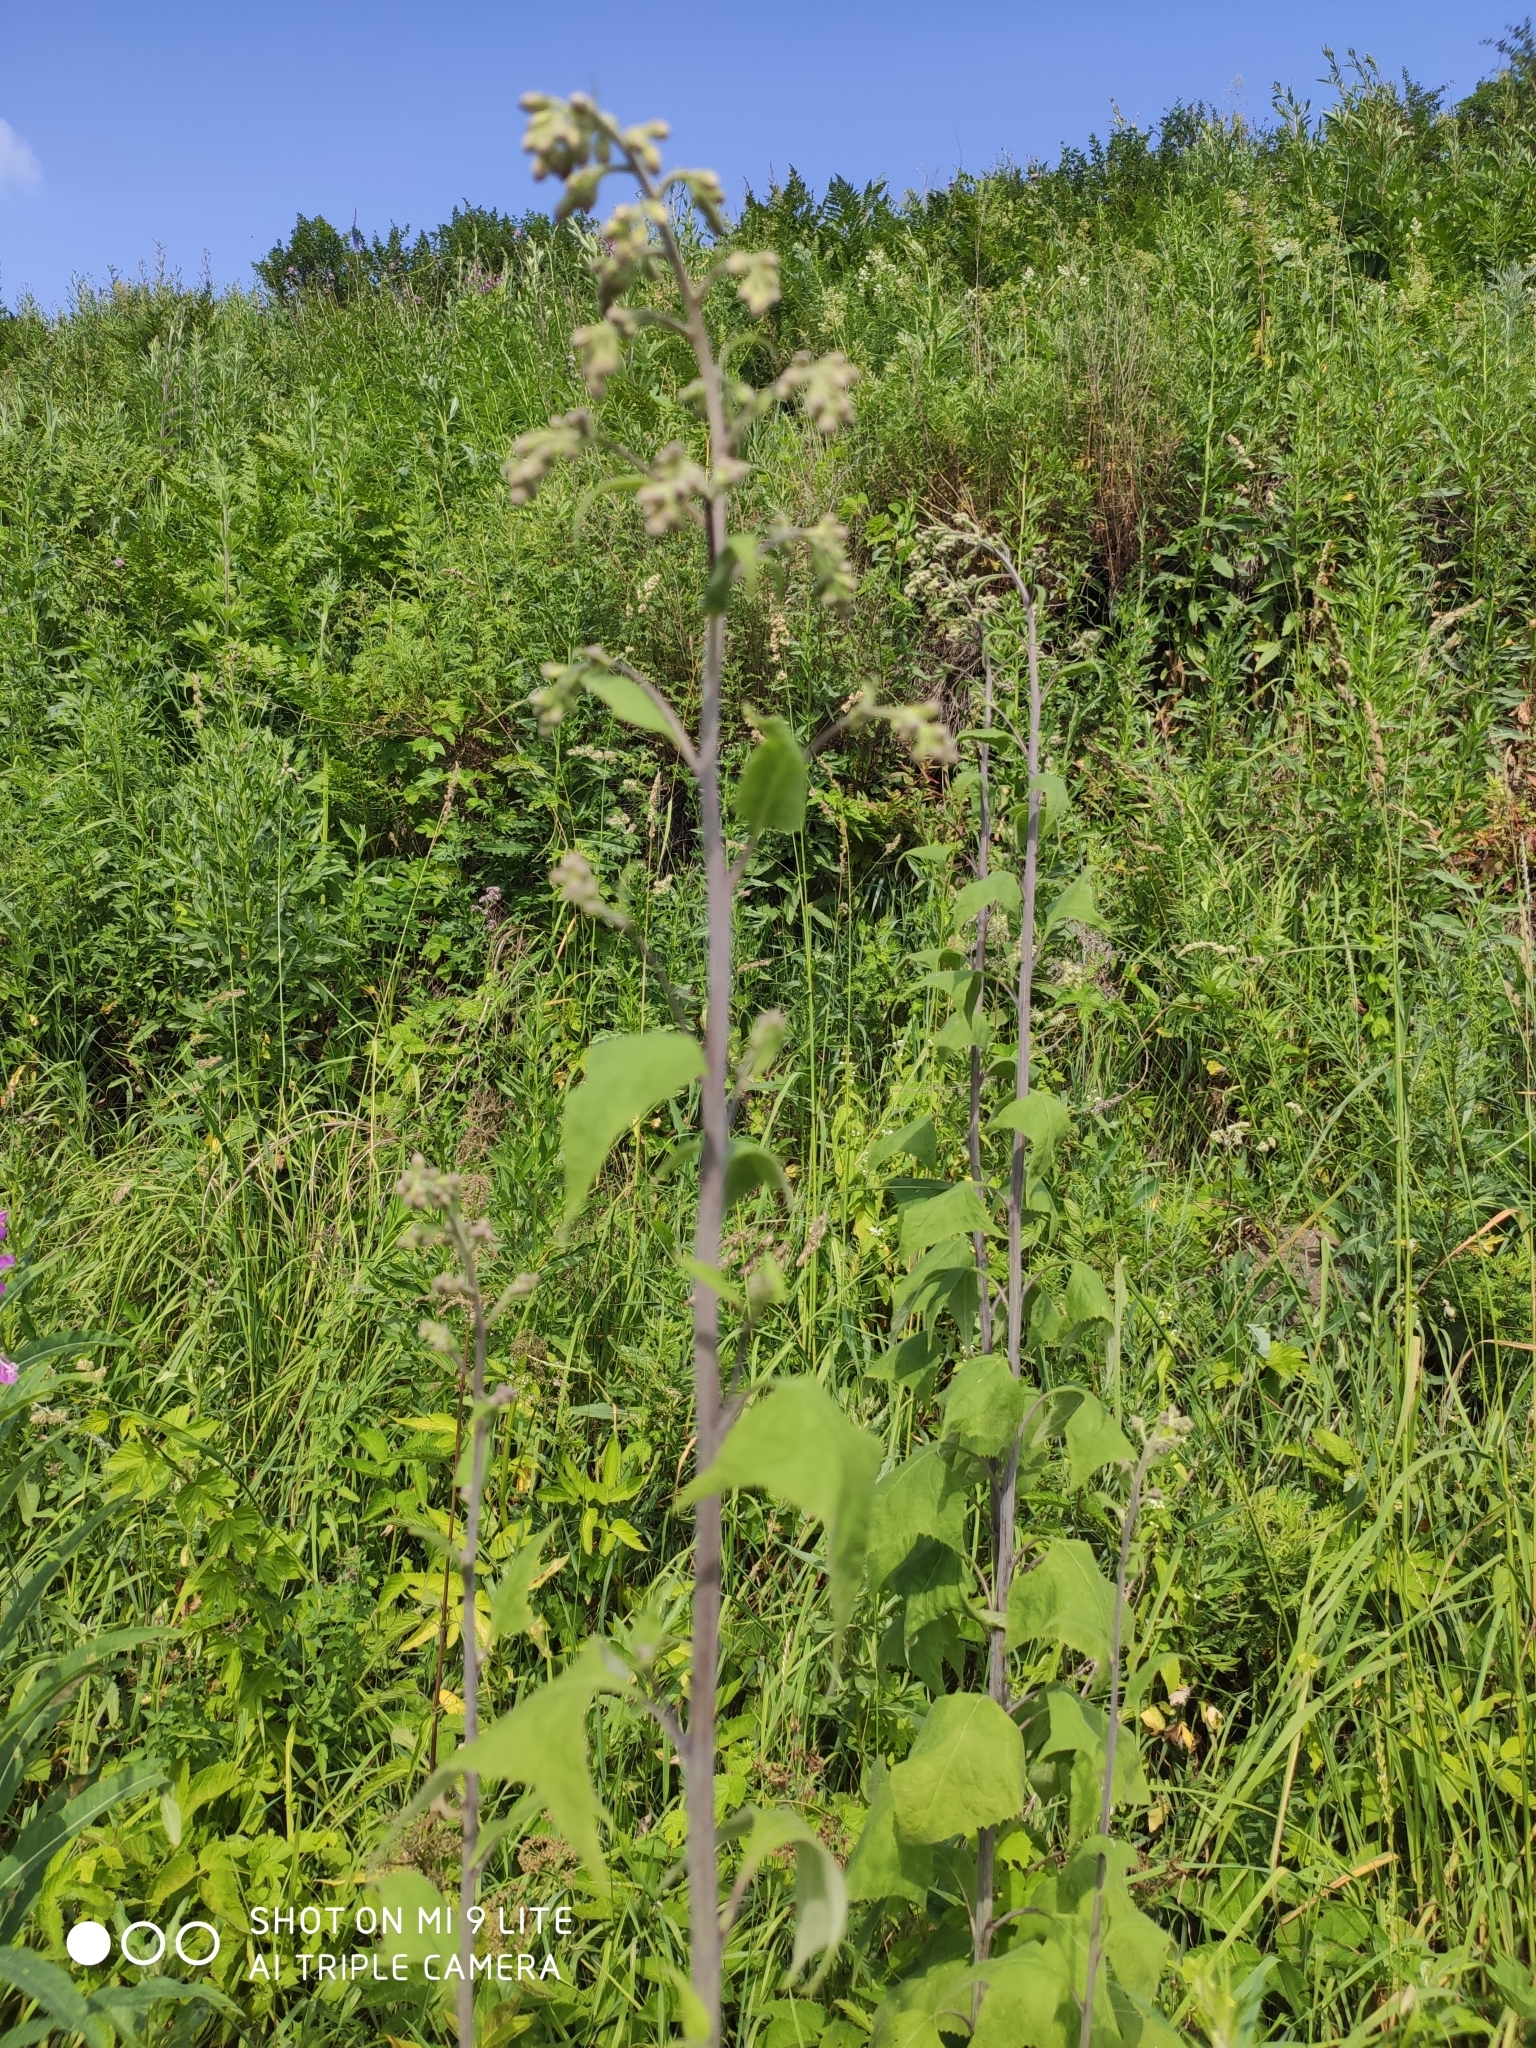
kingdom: Plantae
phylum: Tracheophyta
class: Magnoliopsida
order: Asterales
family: Asteraceae
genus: Parasenecio
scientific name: Parasenecio hastatus
